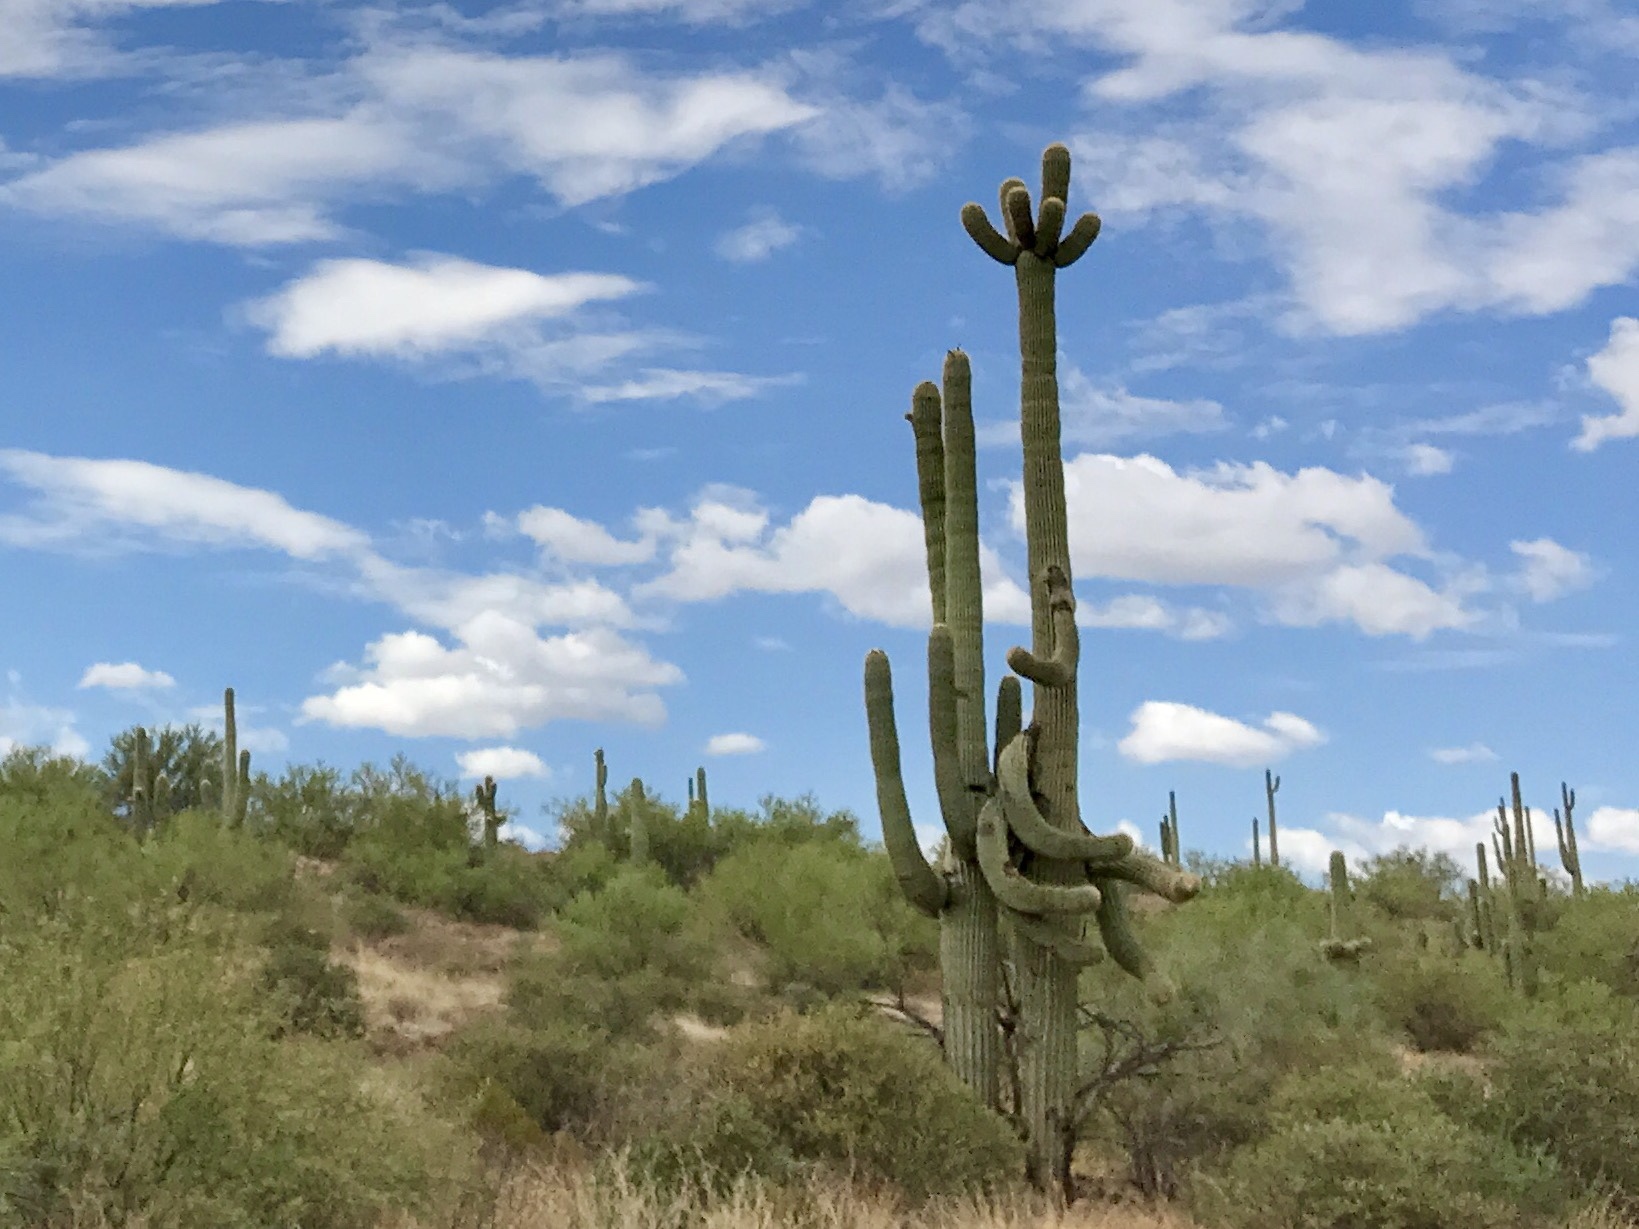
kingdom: Plantae
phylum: Tracheophyta
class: Magnoliopsida
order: Caryophyllales
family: Cactaceae
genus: Carnegiea
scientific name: Carnegiea gigantea
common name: Saguaro
